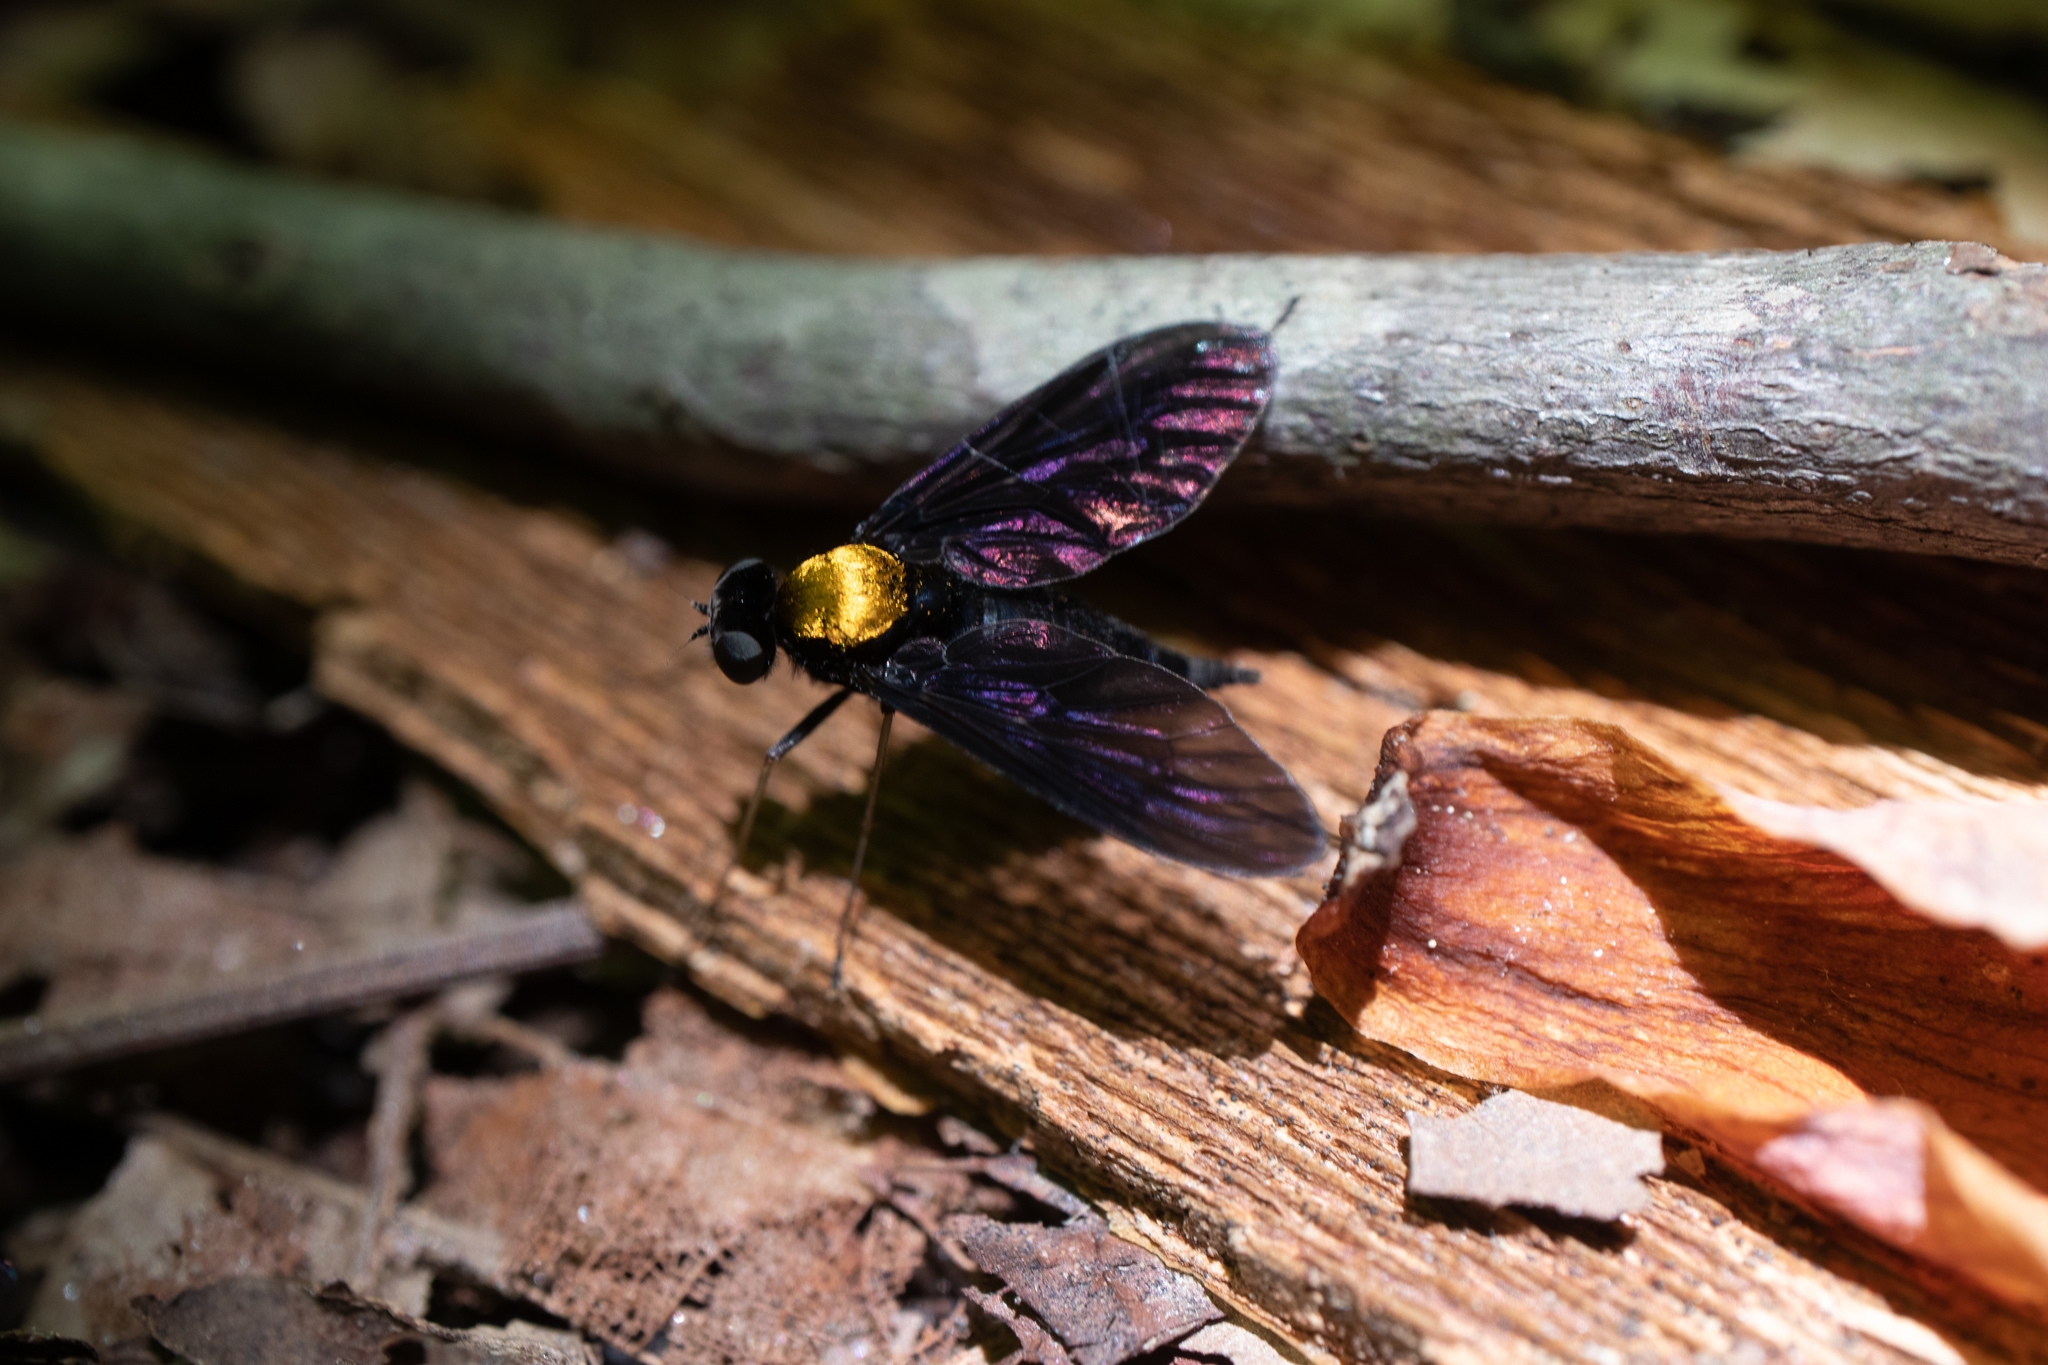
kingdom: Animalia
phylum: Arthropoda
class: Insecta
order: Diptera
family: Rhagionidae
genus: Chrysopilus
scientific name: Chrysopilus davisi
